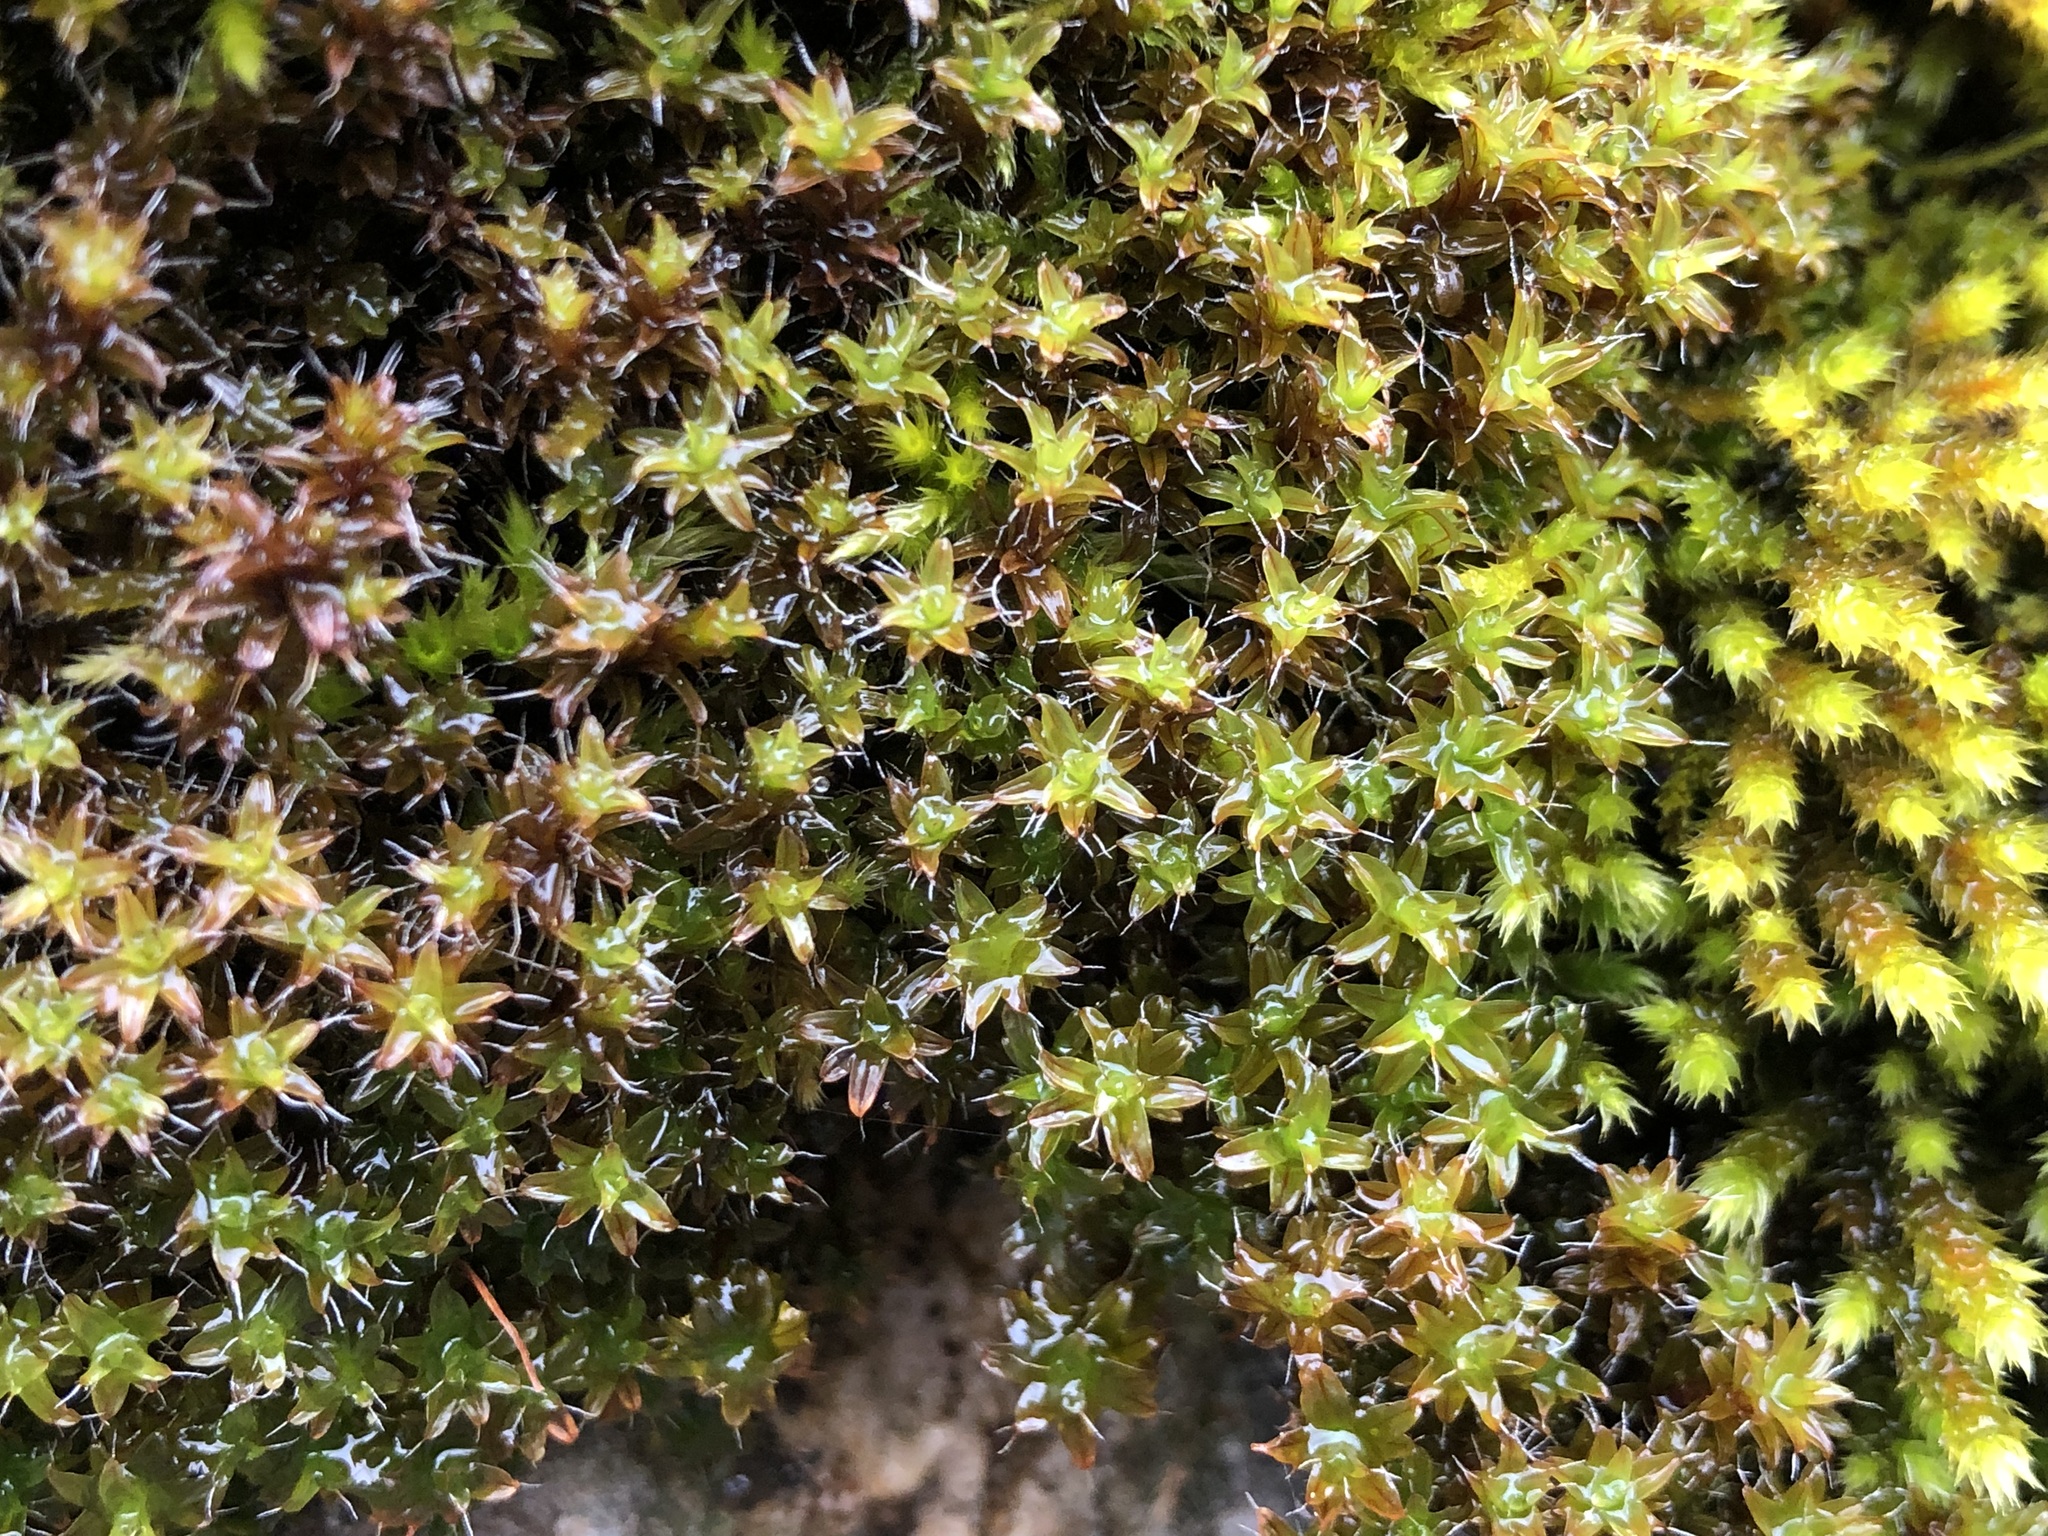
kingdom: Plantae
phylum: Bryophyta
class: Bryopsida
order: Pottiales
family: Pottiaceae
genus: Syntrichia
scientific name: Syntrichia ruralis
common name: Sidewalk screw moss
